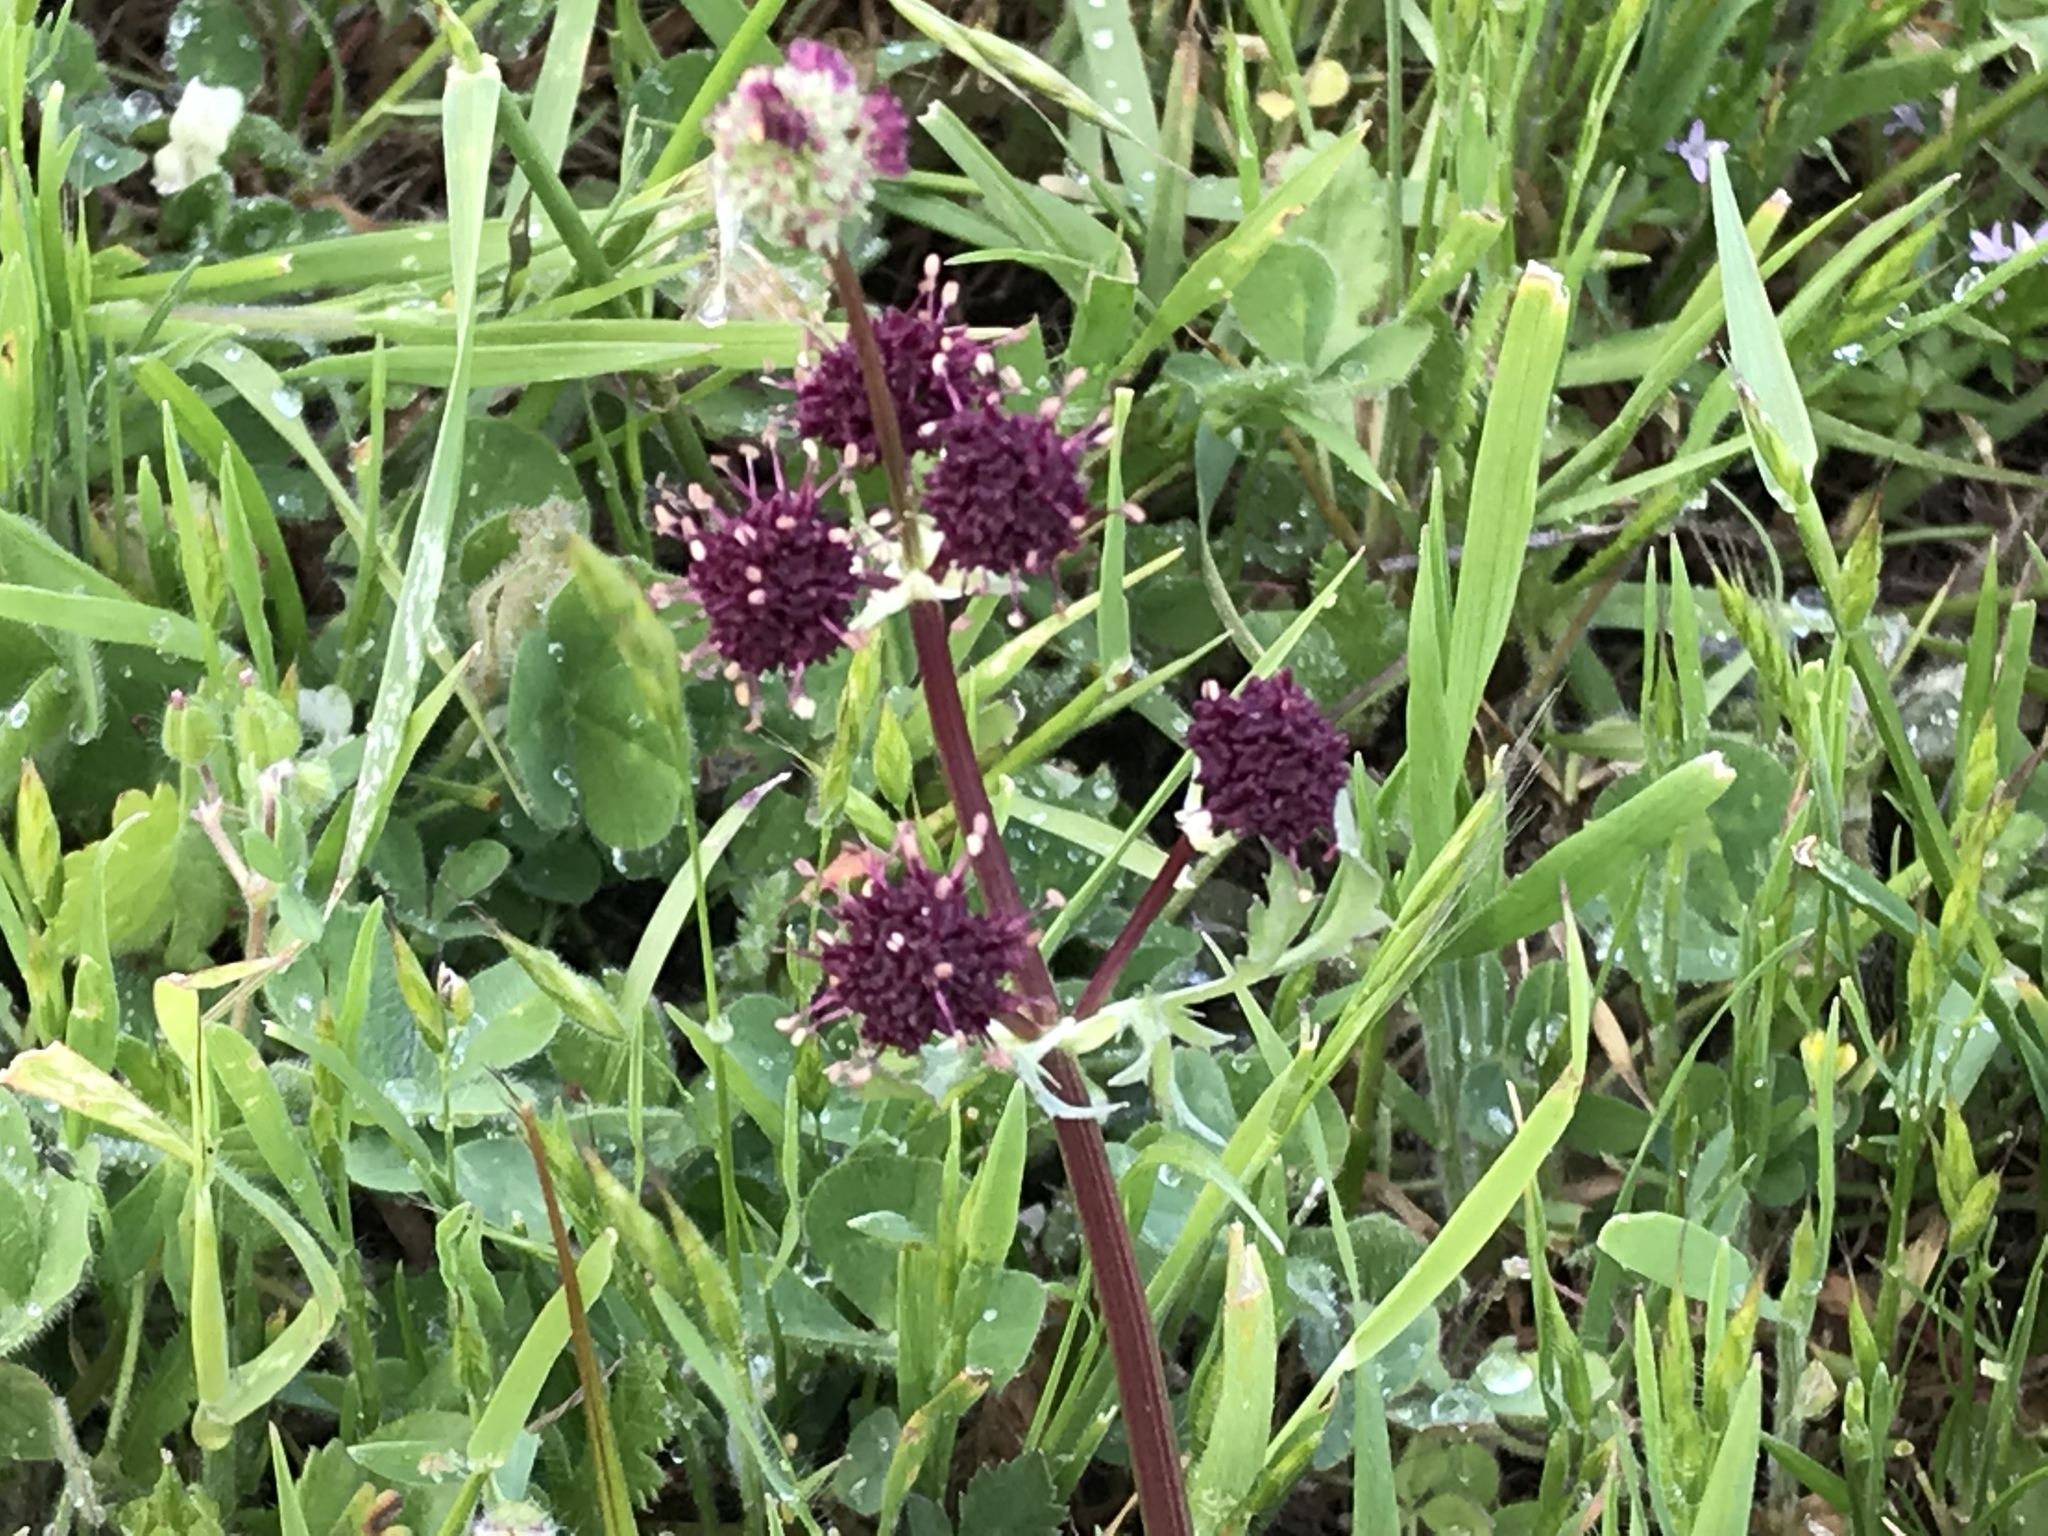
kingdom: Plantae
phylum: Tracheophyta
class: Magnoliopsida
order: Apiales
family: Apiaceae
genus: Sanicula
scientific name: Sanicula bipinnatifida
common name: Shoe-buttons
